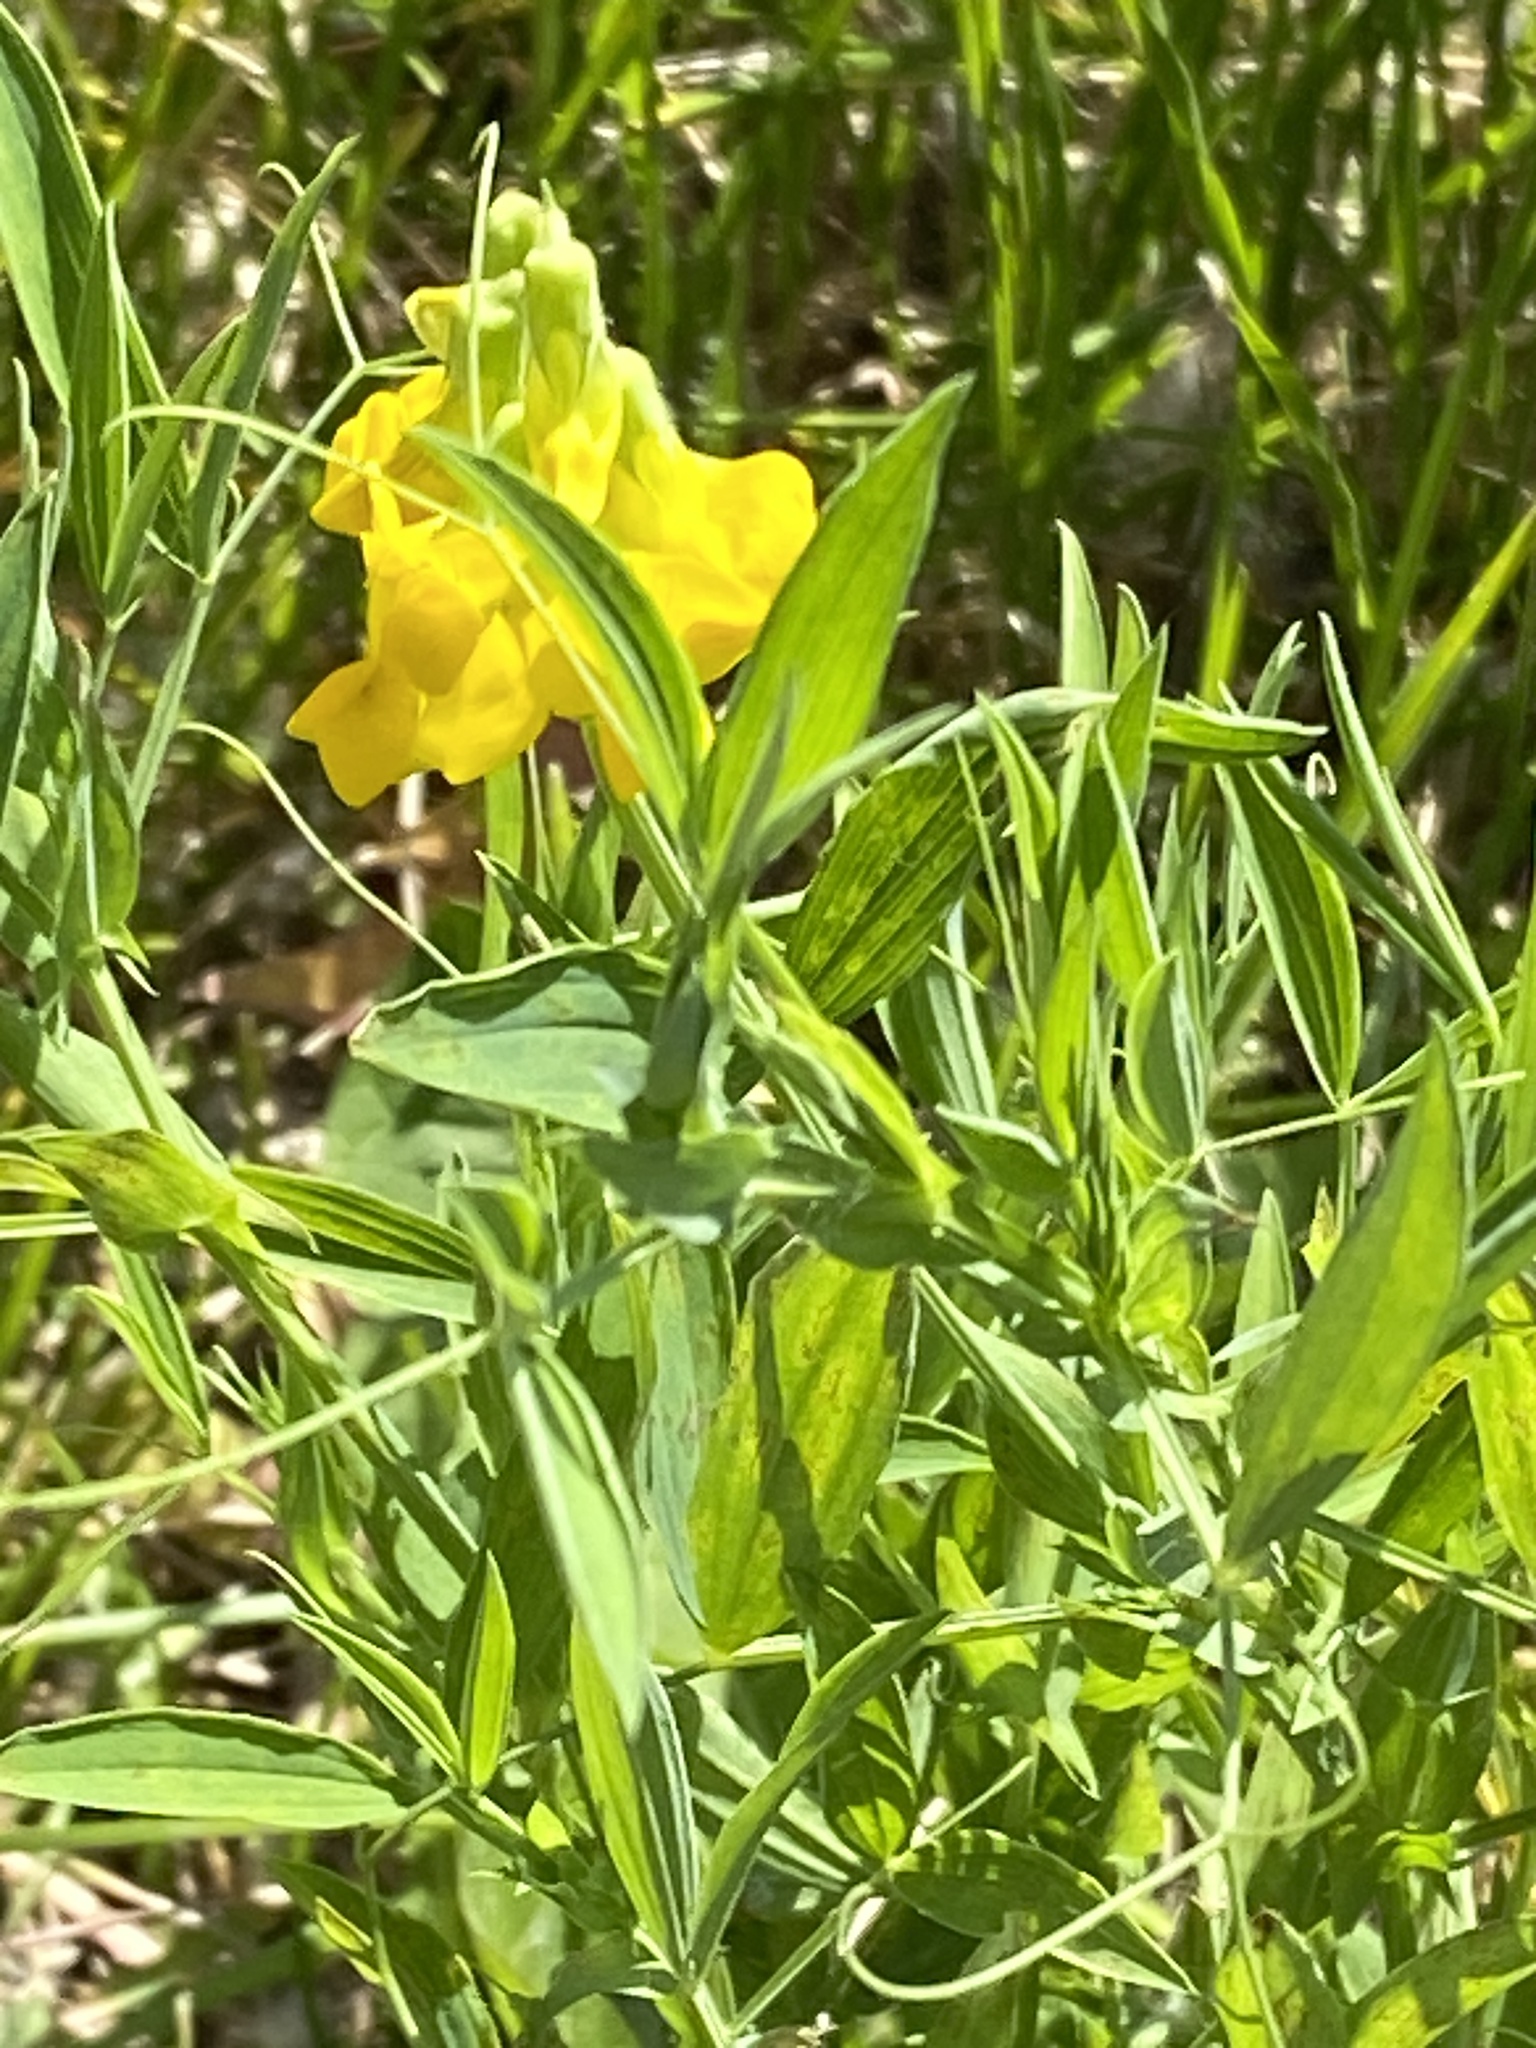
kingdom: Plantae
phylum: Tracheophyta
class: Magnoliopsida
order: Fabales
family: Fabaceae
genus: Lathyrus
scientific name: Lathyrus pratensis
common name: Meadow vetchling
